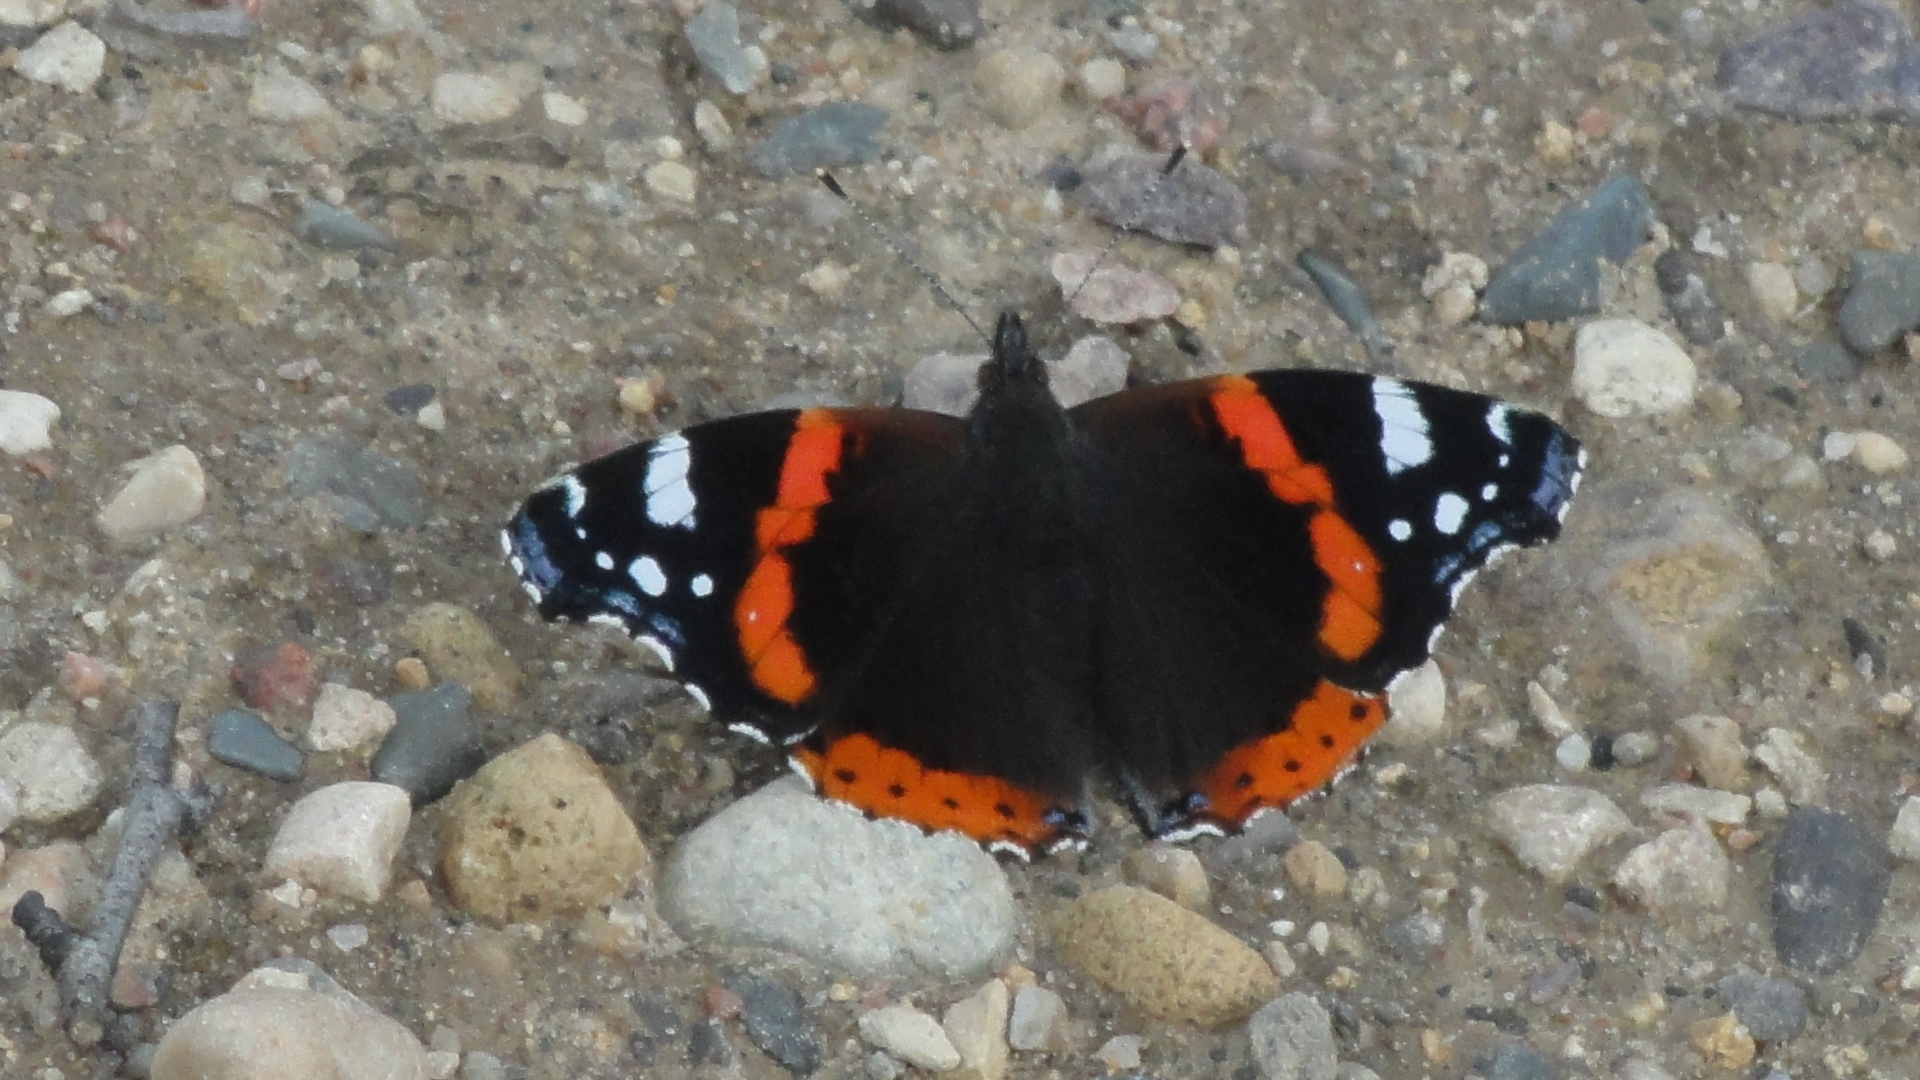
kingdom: Animalia
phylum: Arthropoda
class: Insecta
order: Lepidoptera
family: Nymphalidae
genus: Vanessa
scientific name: Vanessa atalanta
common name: Red admiral
